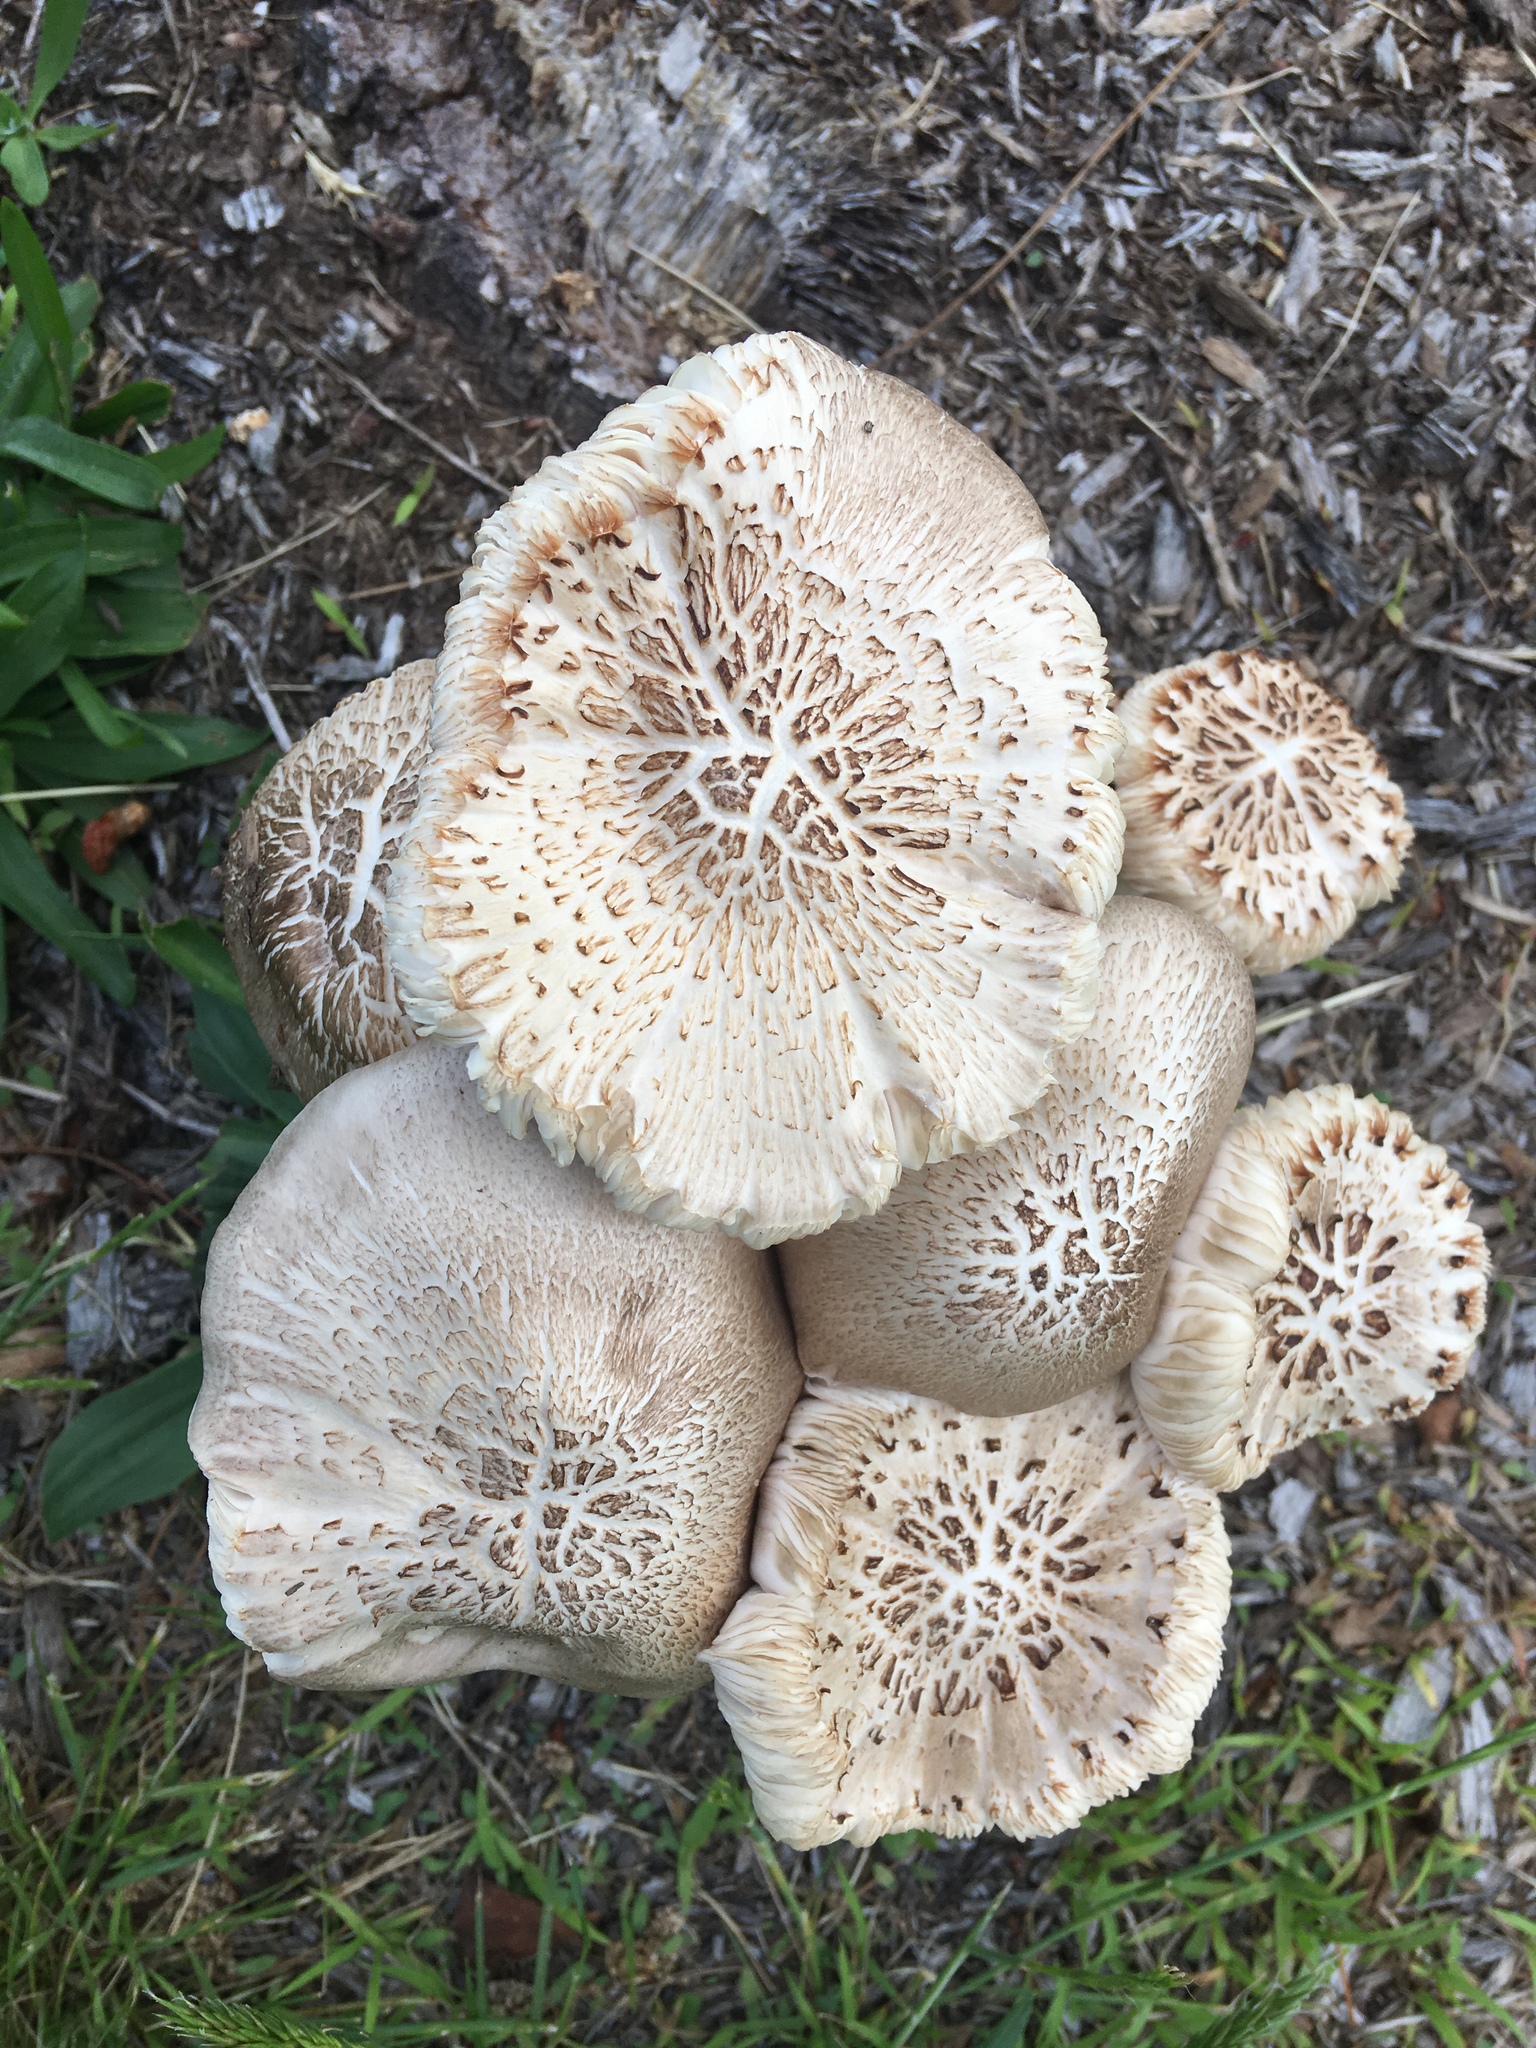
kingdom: Fungi
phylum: Basidiomycota
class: Agaricomycetes
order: Agaricales
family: Pluteaceae
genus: Pluteus
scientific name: Pluteus petasatus
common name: Scaly shield
